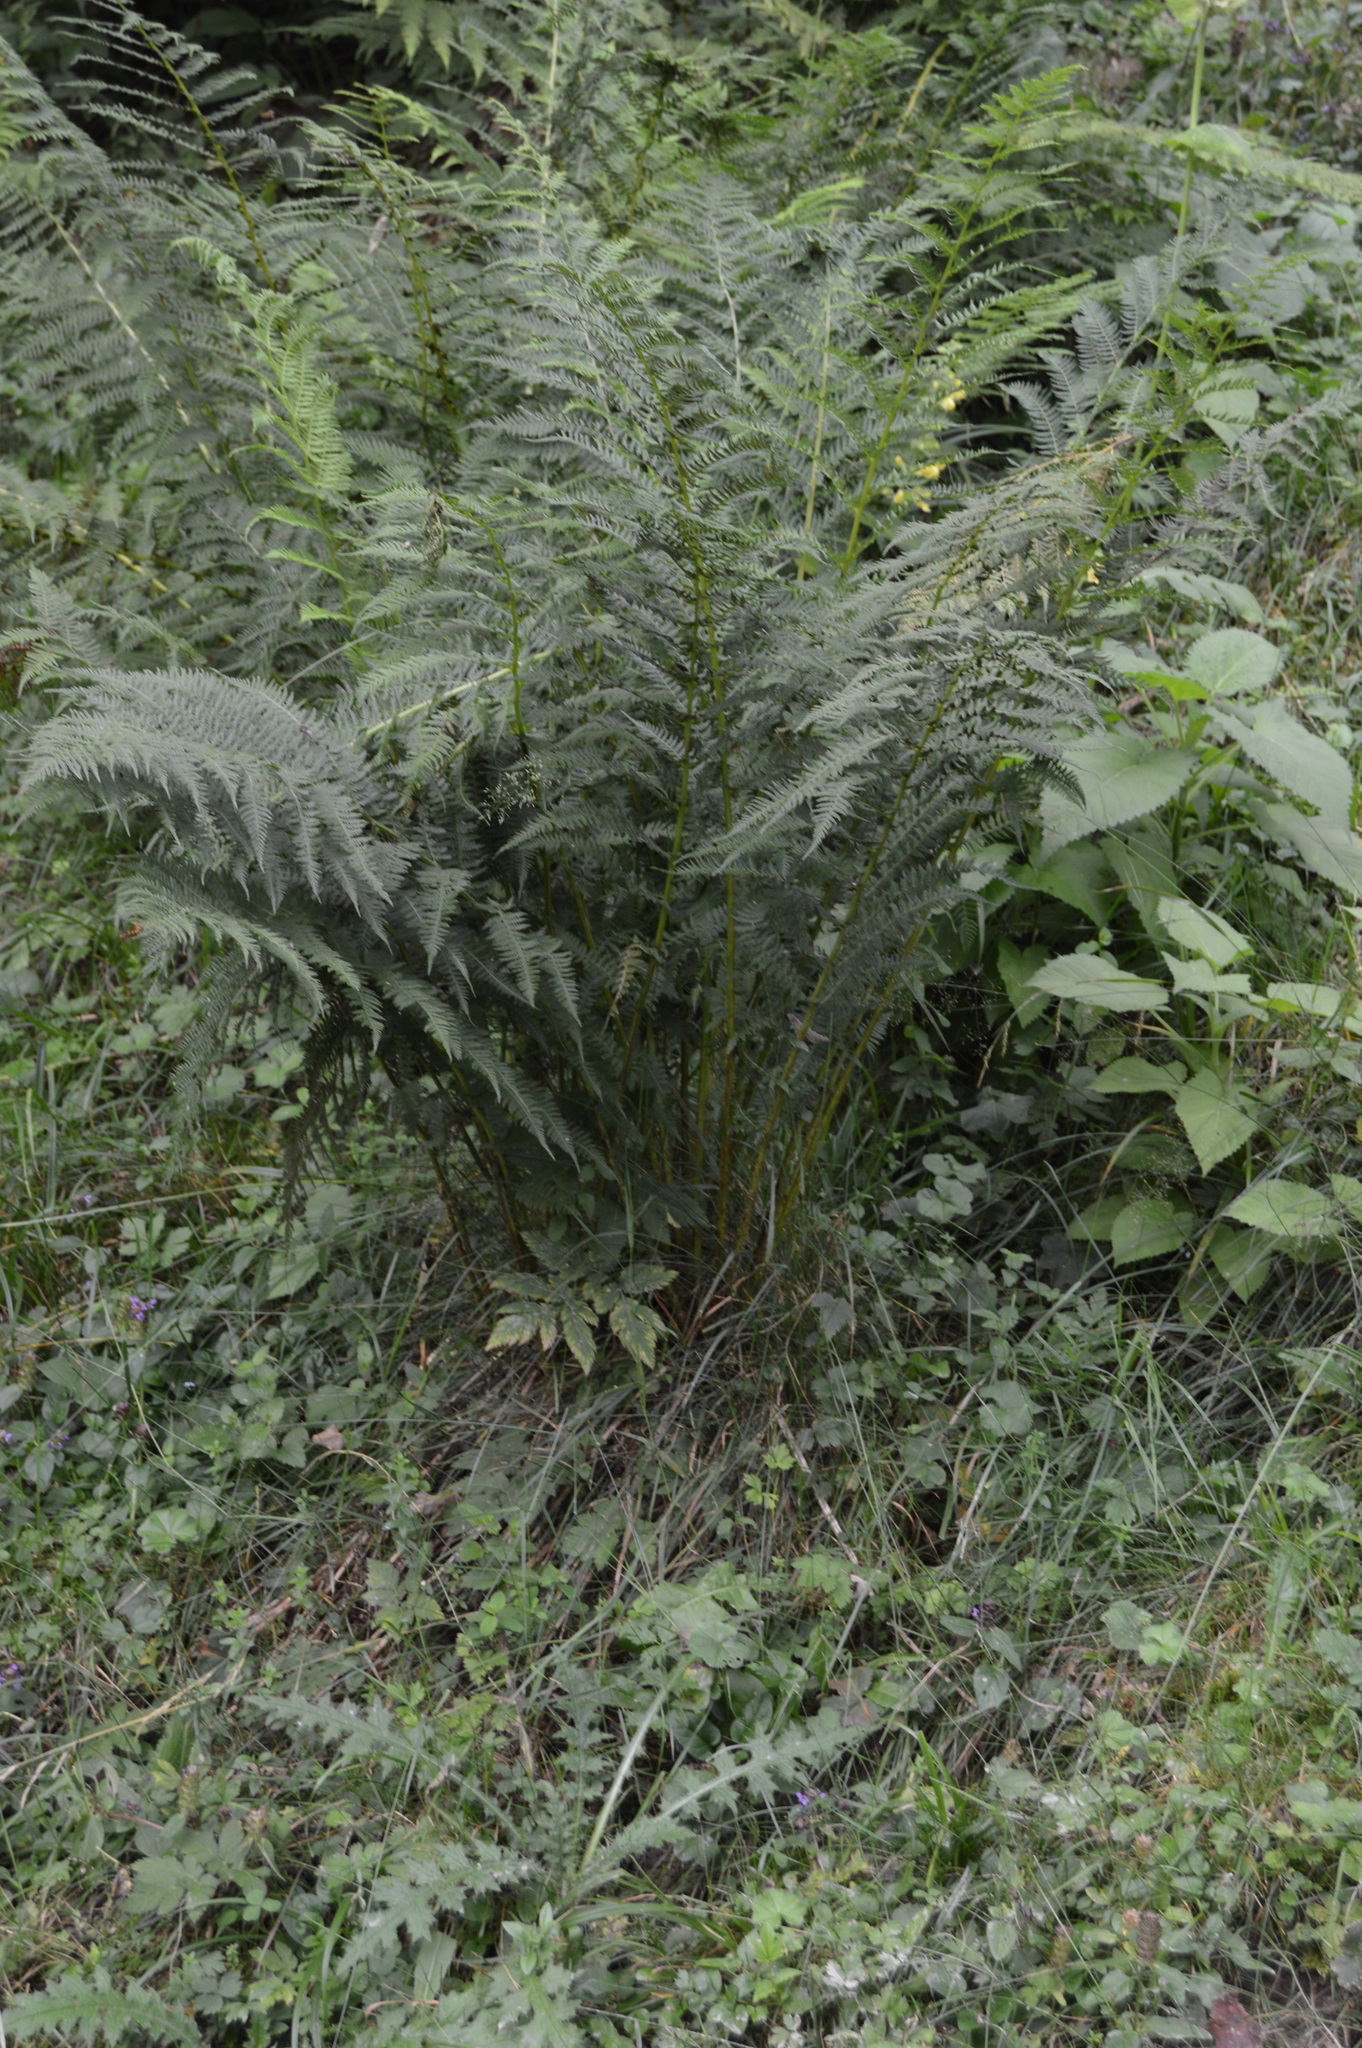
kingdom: Plantae
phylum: Tracheophyta
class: Polypodiopsida
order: Polypodiales
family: Athyriaceae
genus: Athyrium
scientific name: Athyrium filix-femina
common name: Lady fern
